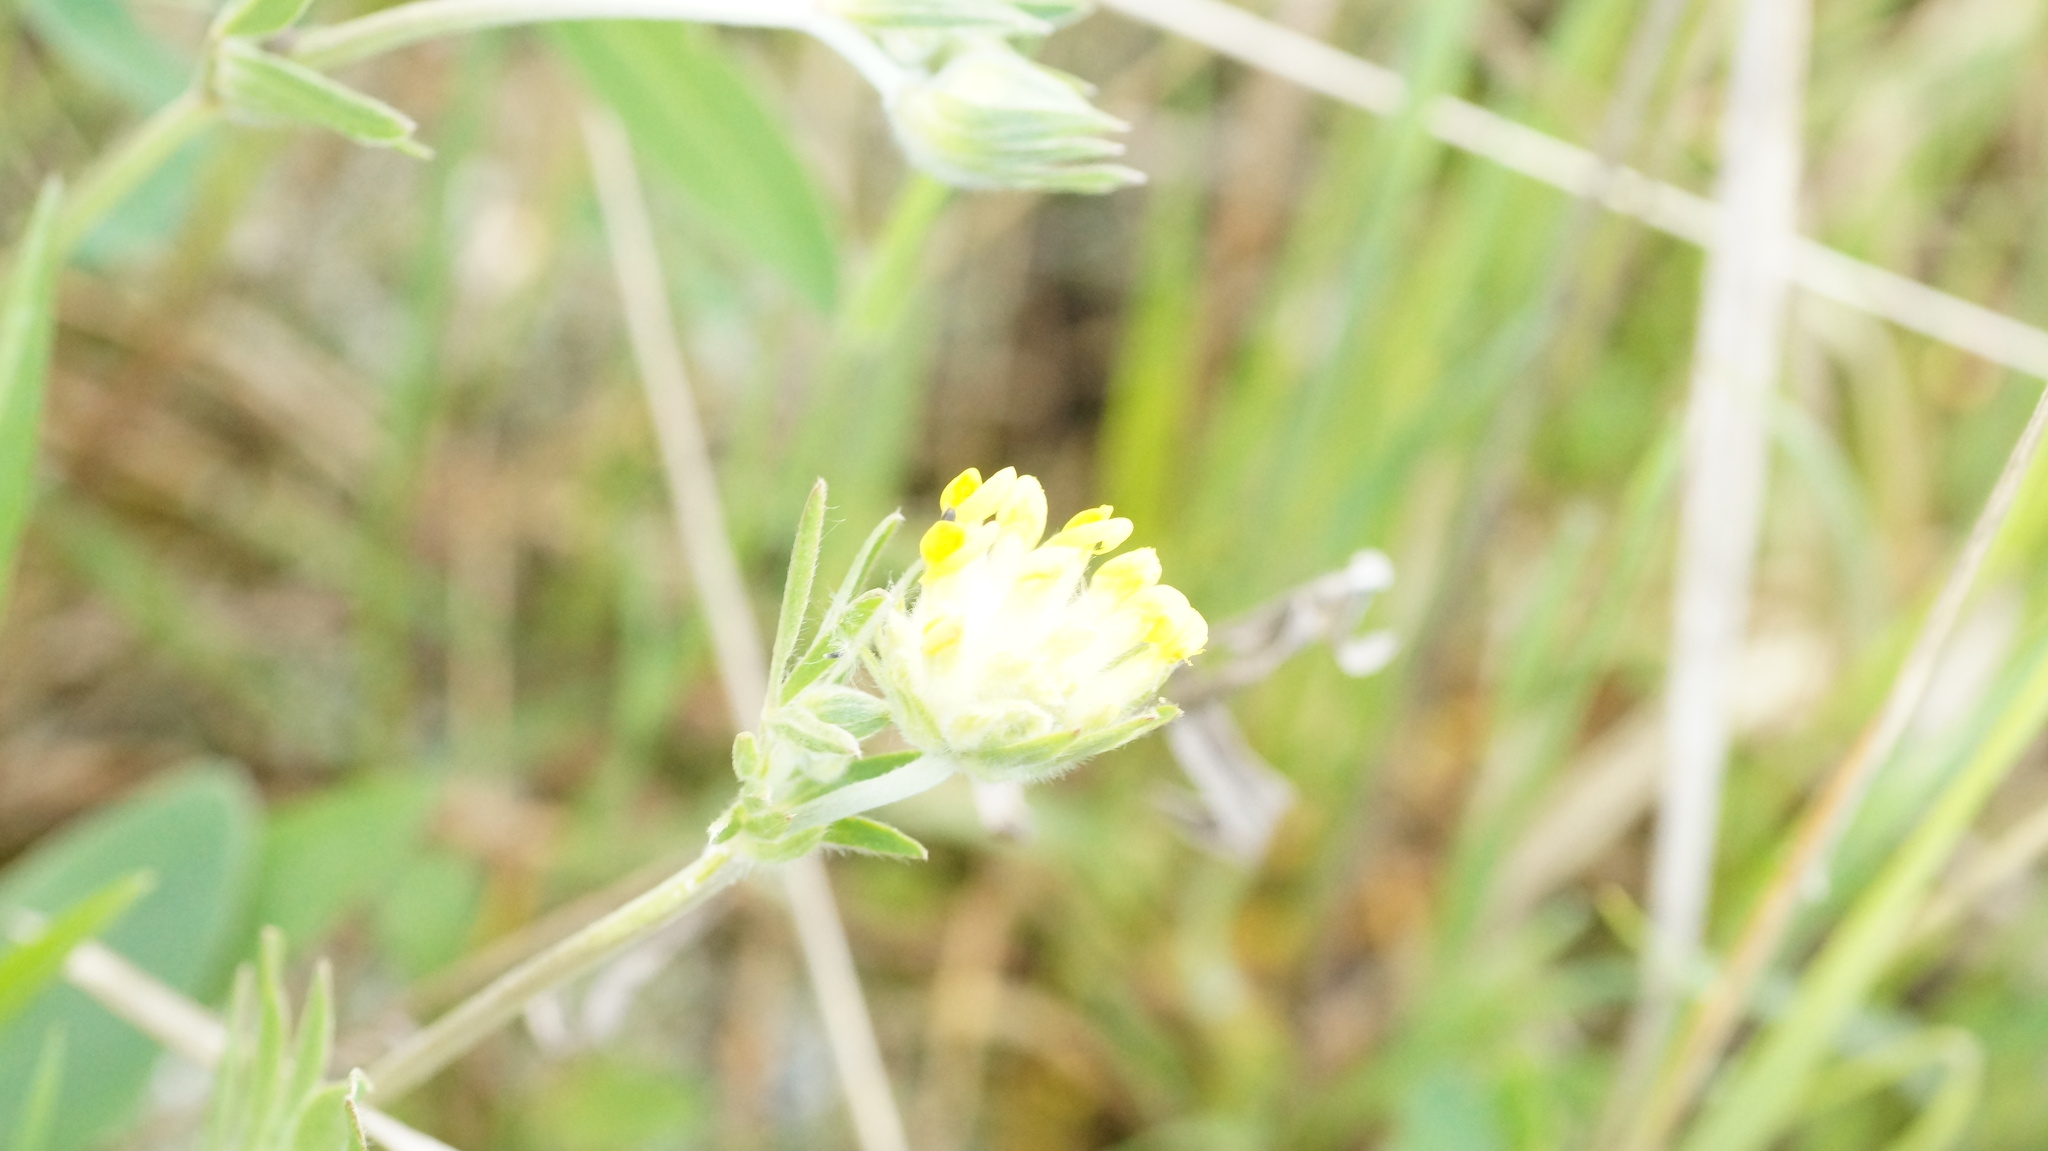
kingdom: Plantae
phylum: Tracheophyta
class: Magnoliopsida
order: Fabales
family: Fabaceae
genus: Anthyllis
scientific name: Anthyllis vulneraria
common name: Kidney vetch
